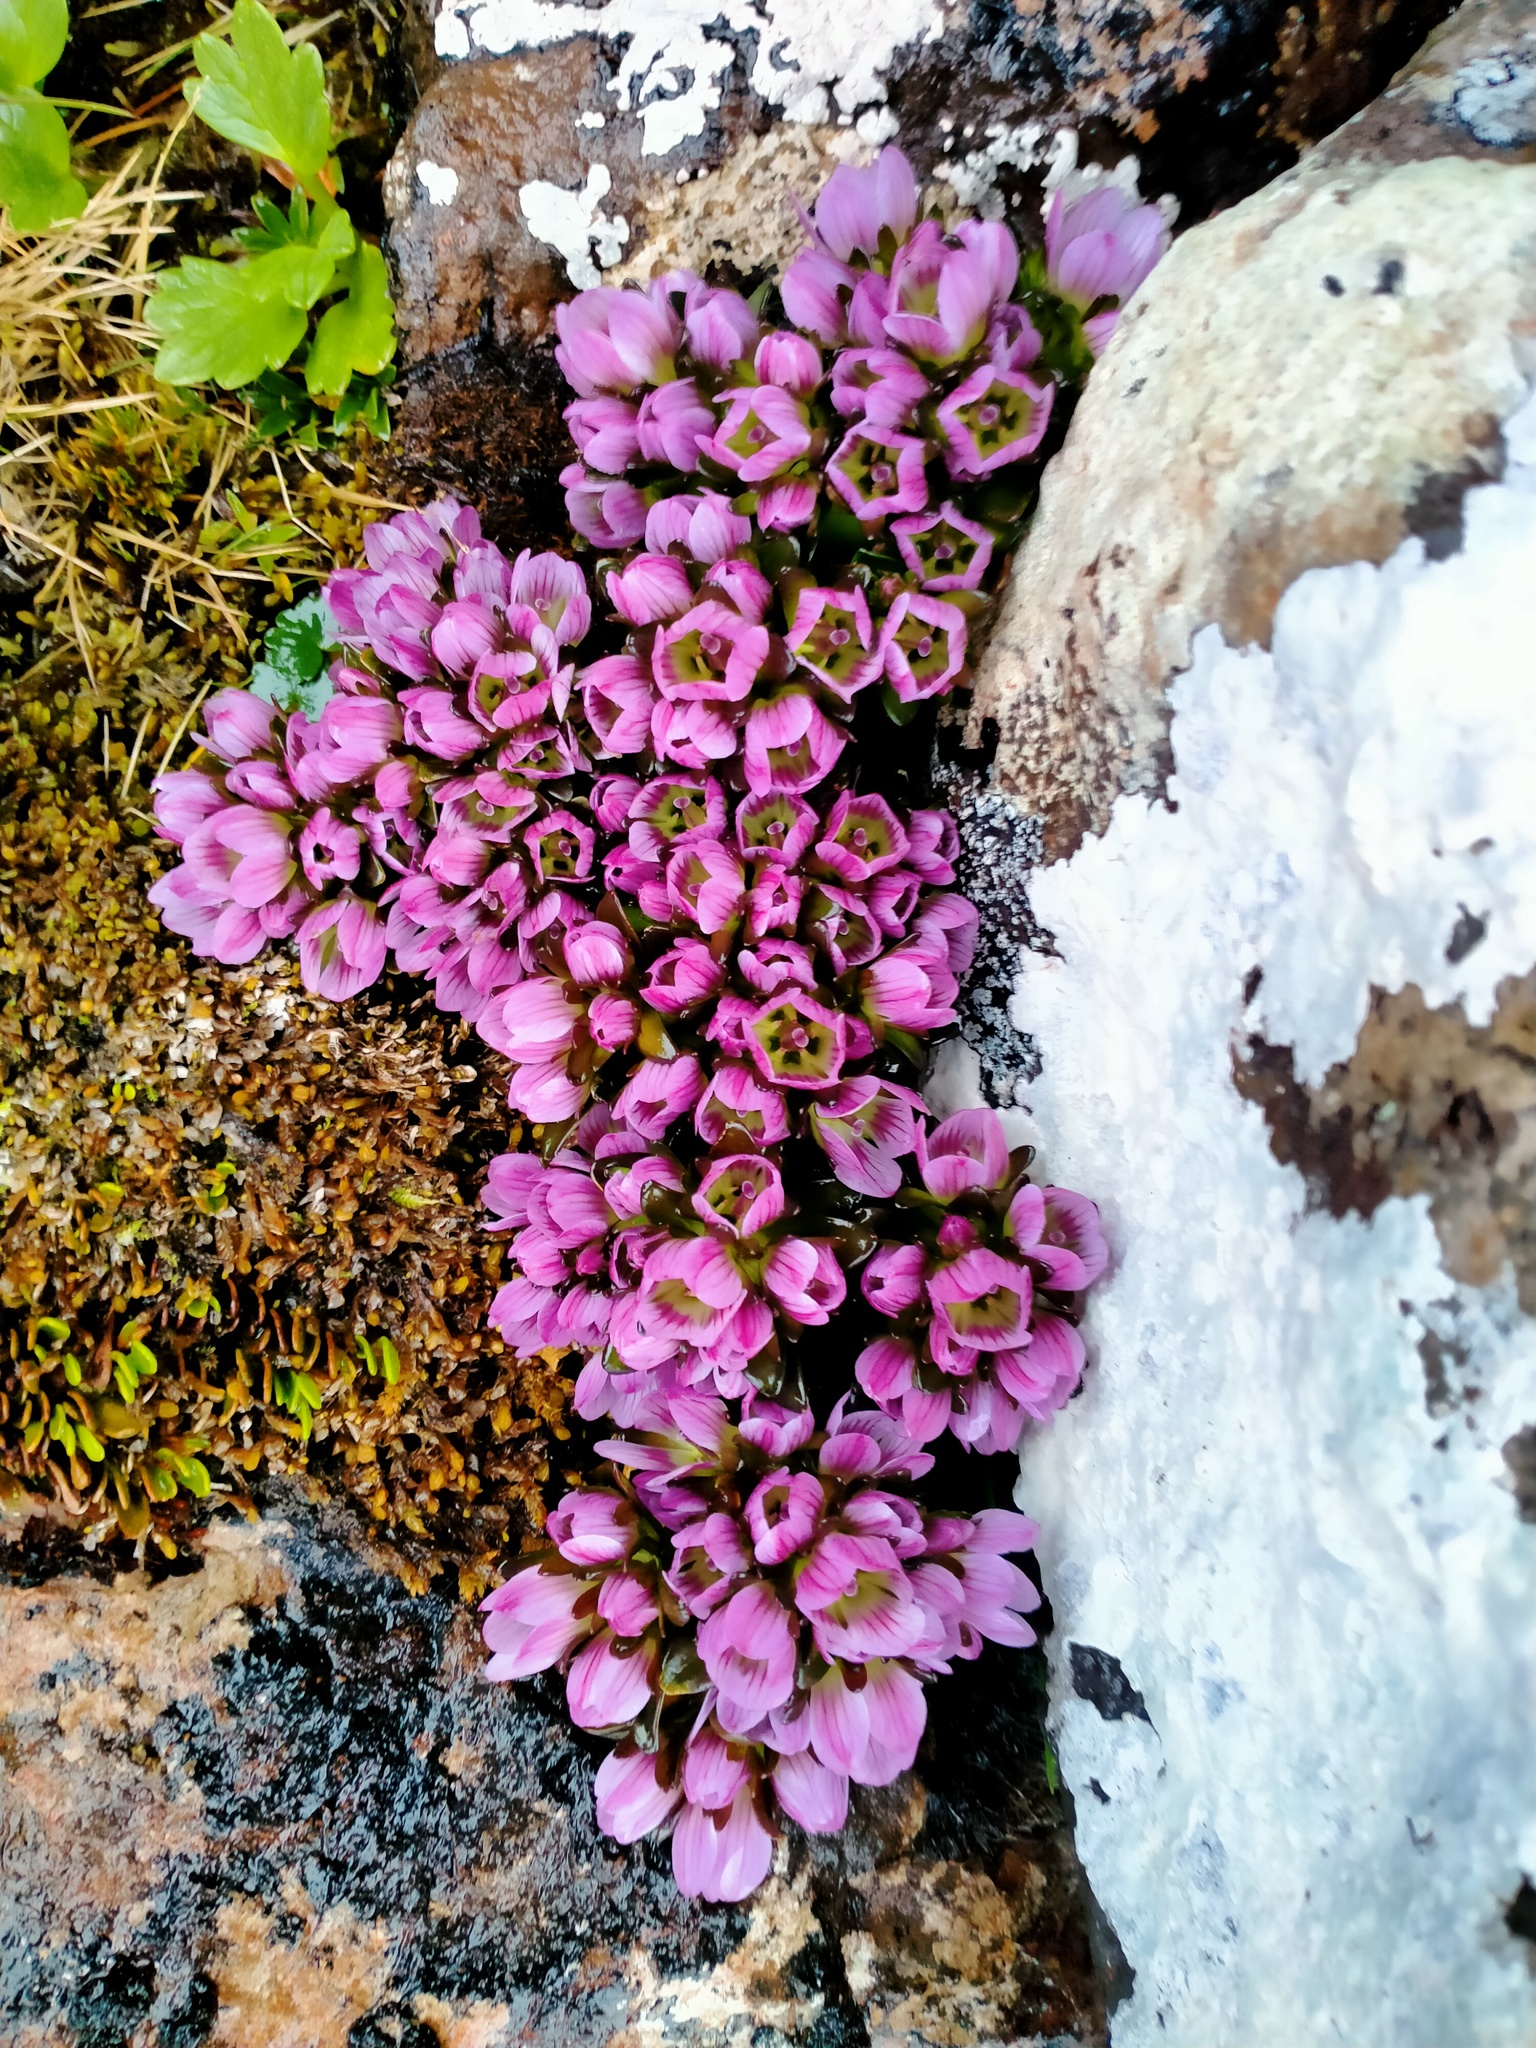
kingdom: Plantae
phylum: Tracheophyta
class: Magnoliopsida
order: Gentianales
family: Gentianaceae
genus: Gentianella
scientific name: Gentianella concinna
